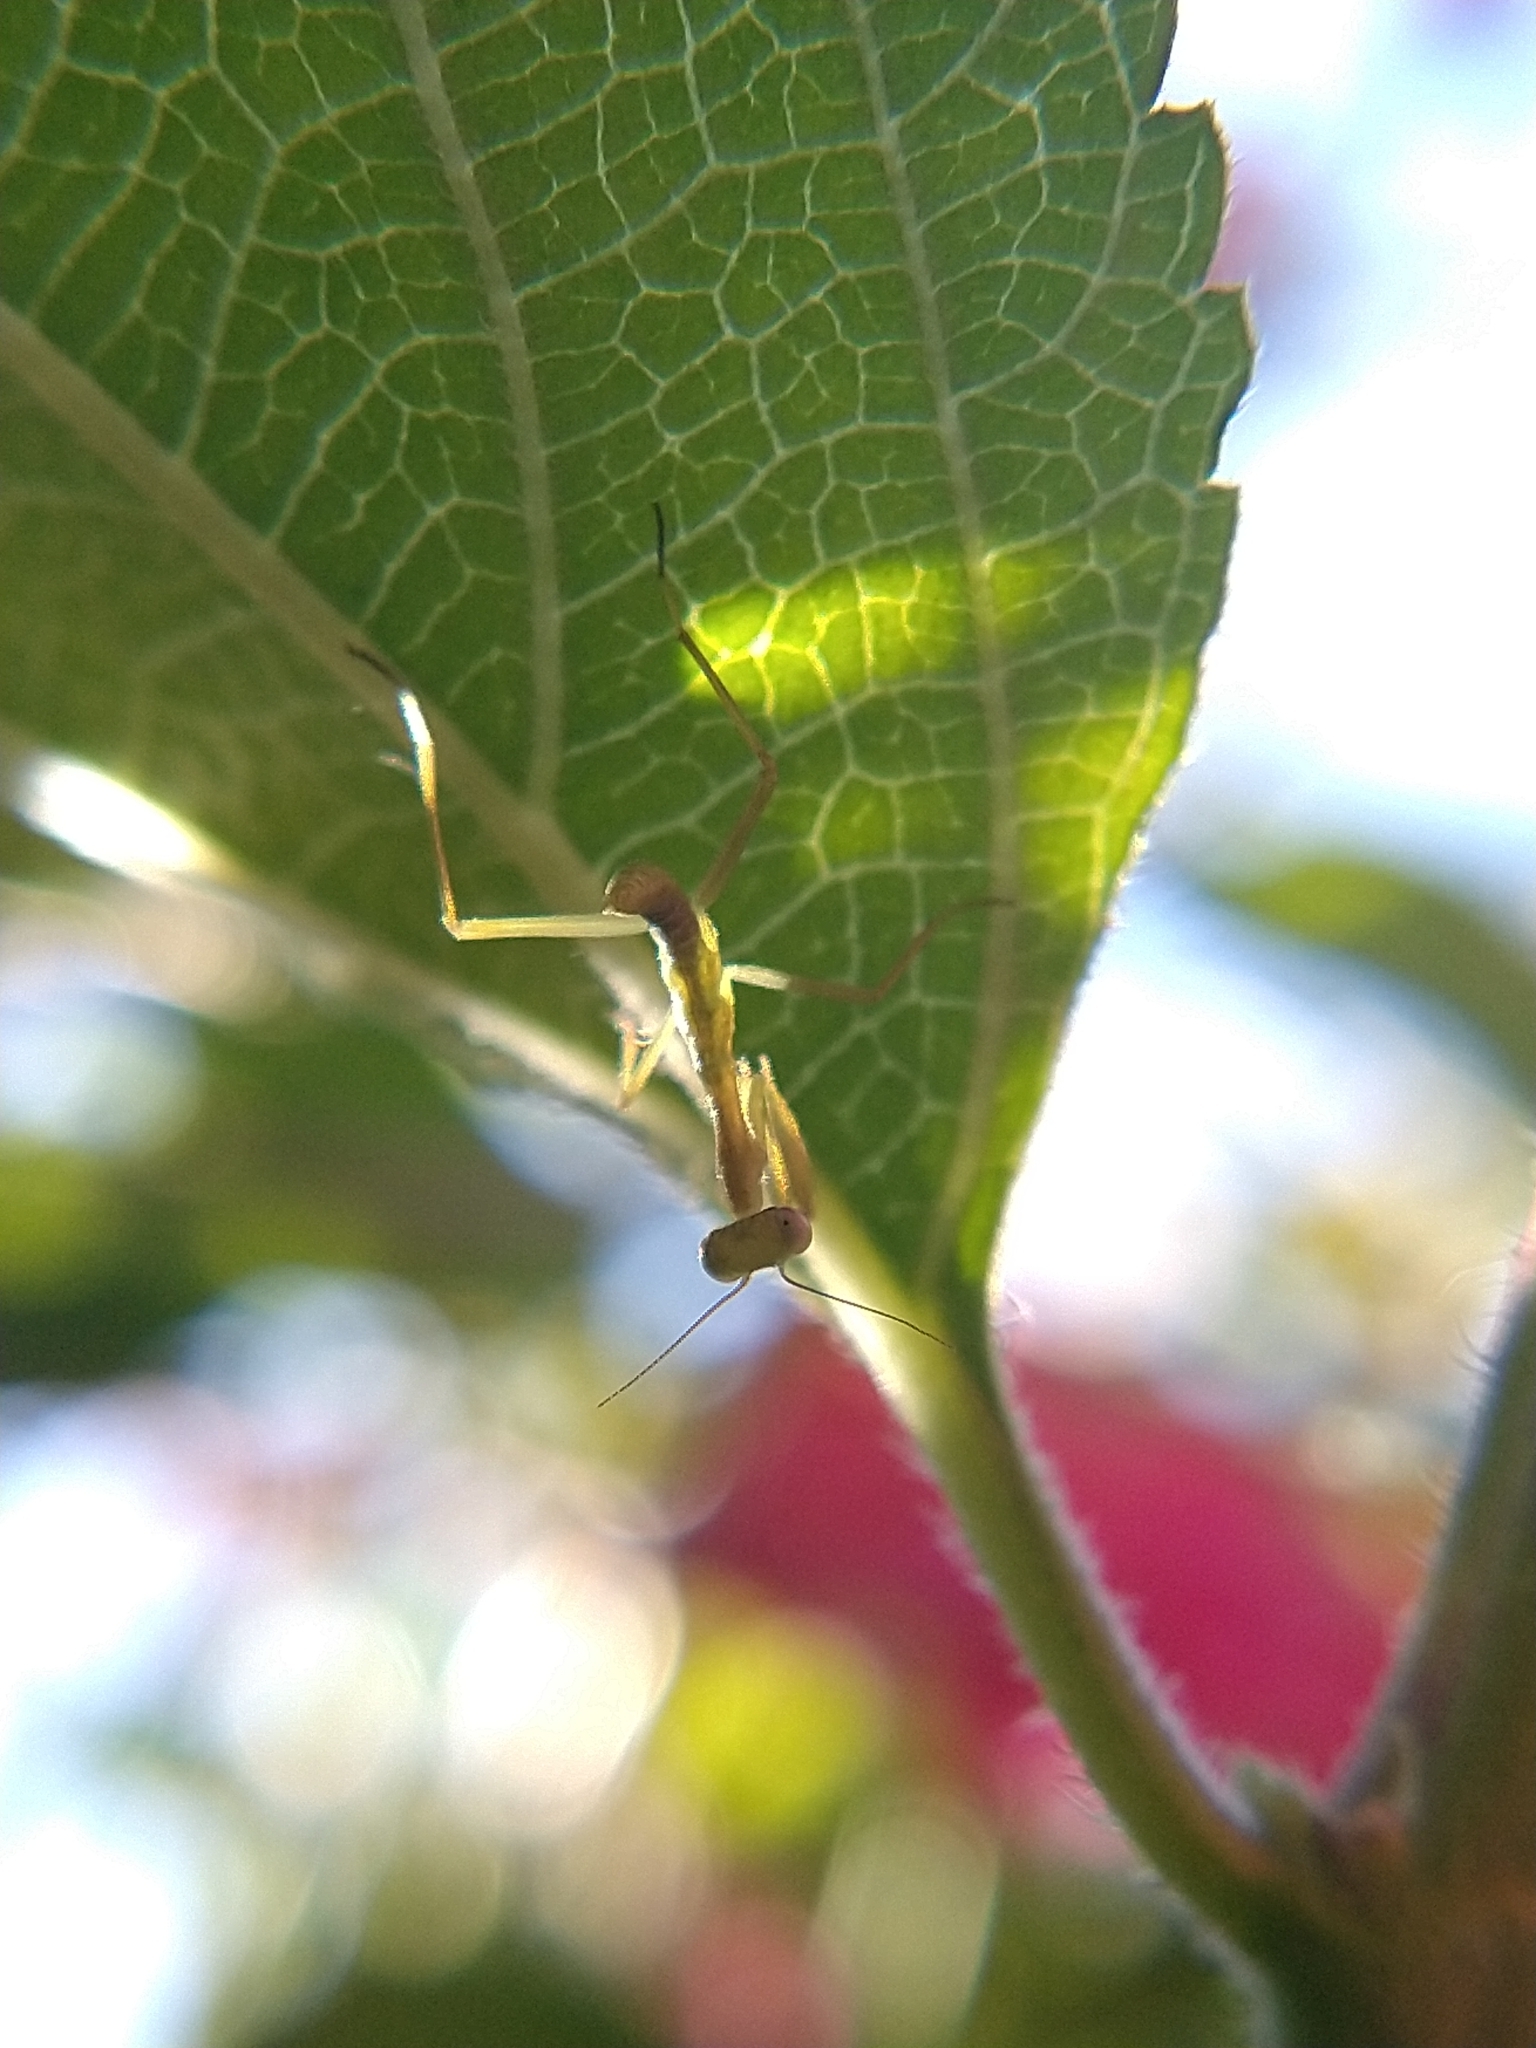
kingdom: Animalia
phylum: Arthropoda
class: Insecta
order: Mantodea
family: Mantidae
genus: Stagmomantis
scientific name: Stagmomantis limbata
